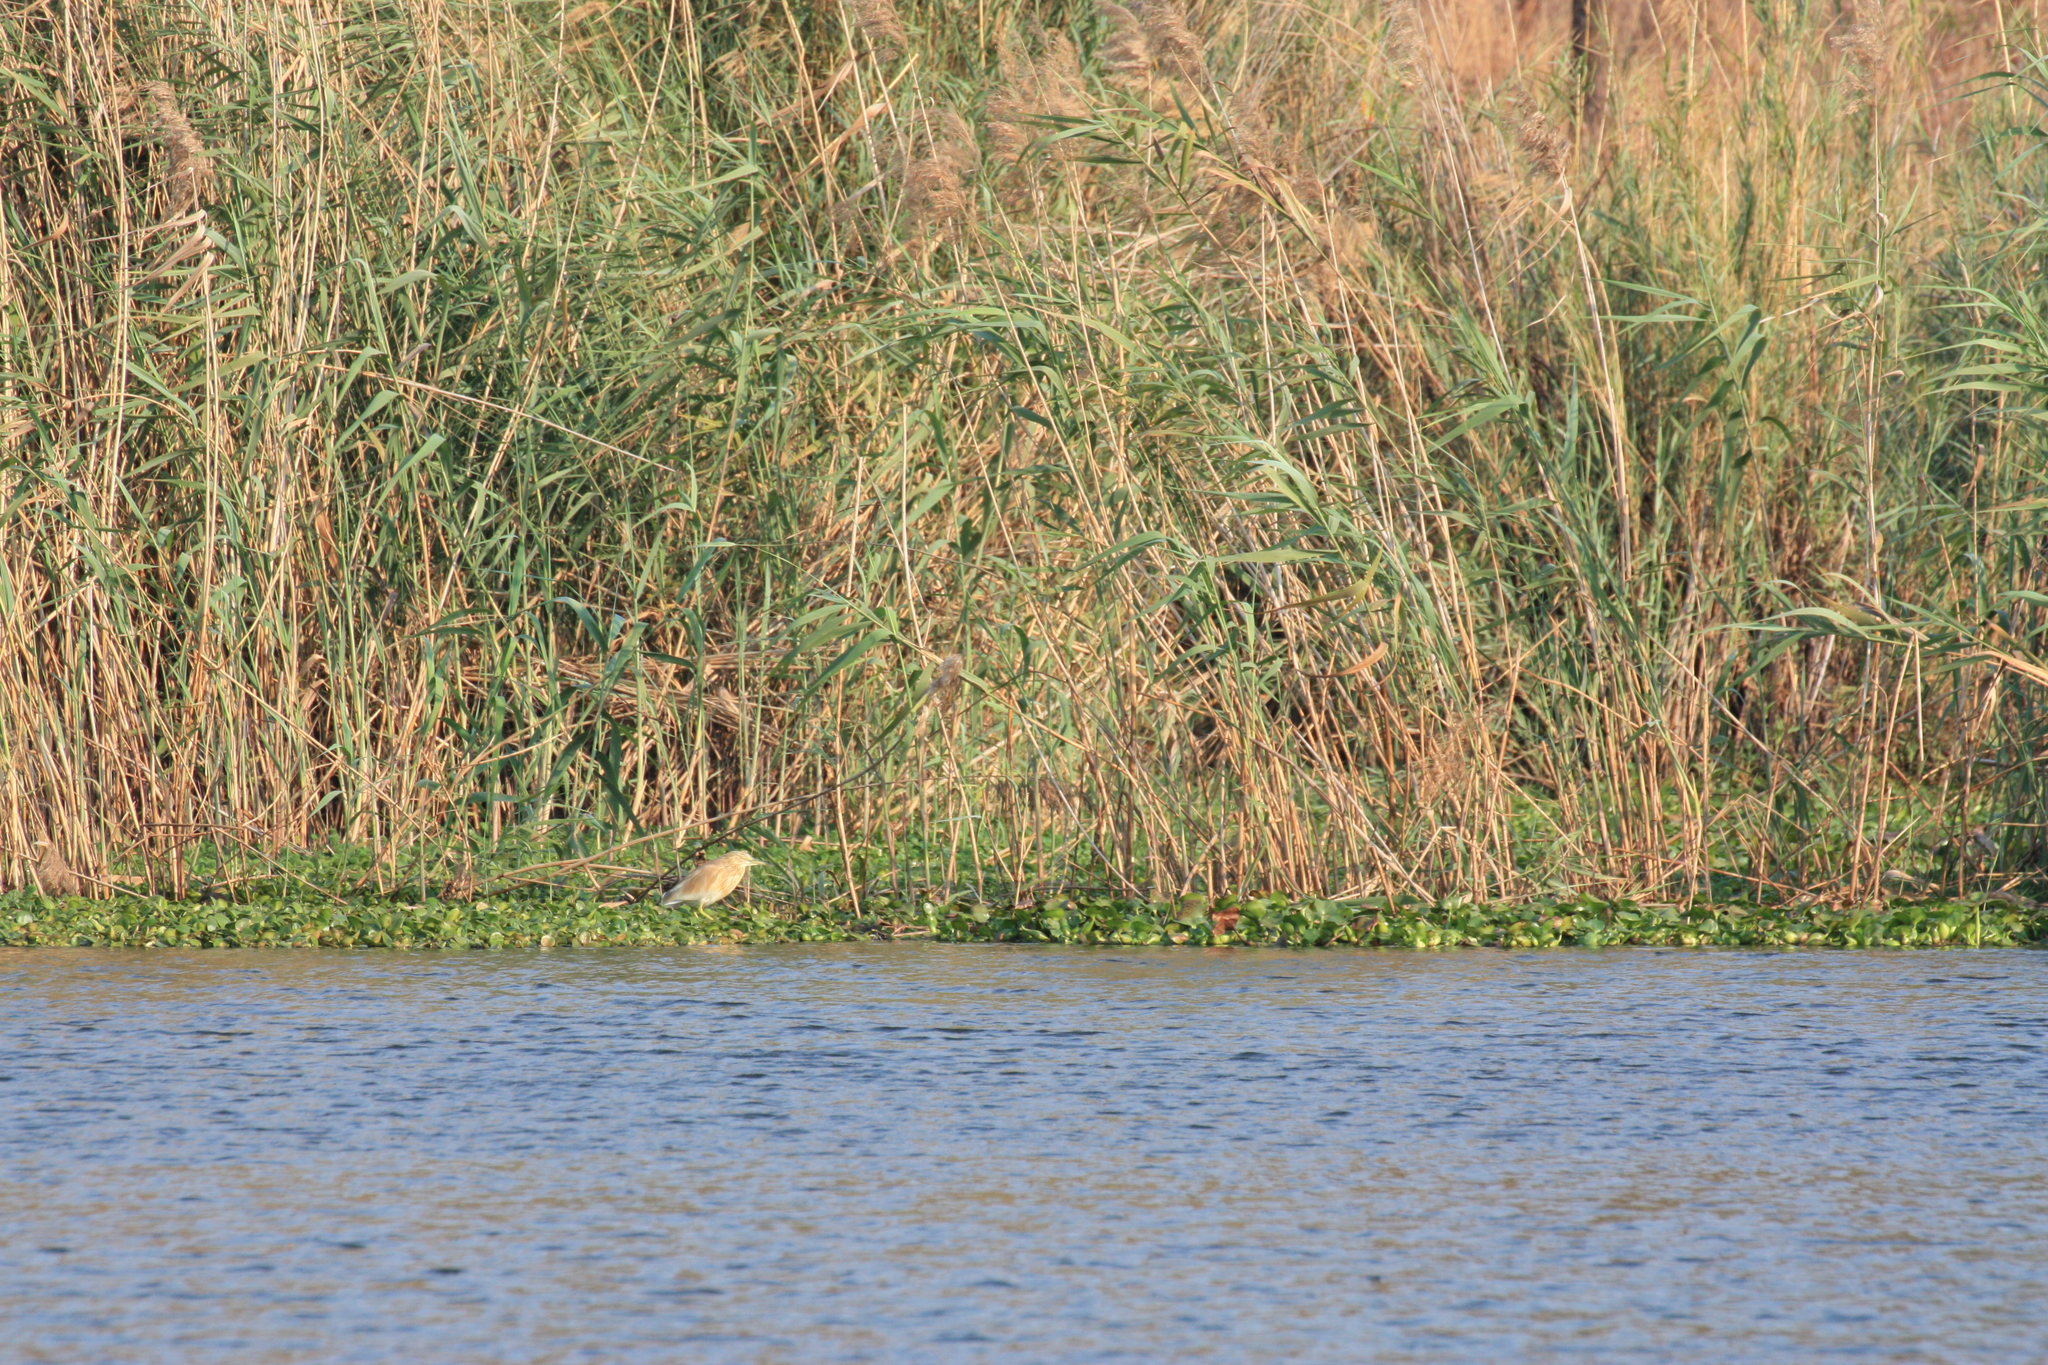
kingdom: Animalia
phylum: Chordata
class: Aves
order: Pelecaniformes
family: Ardeidae
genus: Ardeola
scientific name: Ardeola ralloides
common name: Squacco heron
